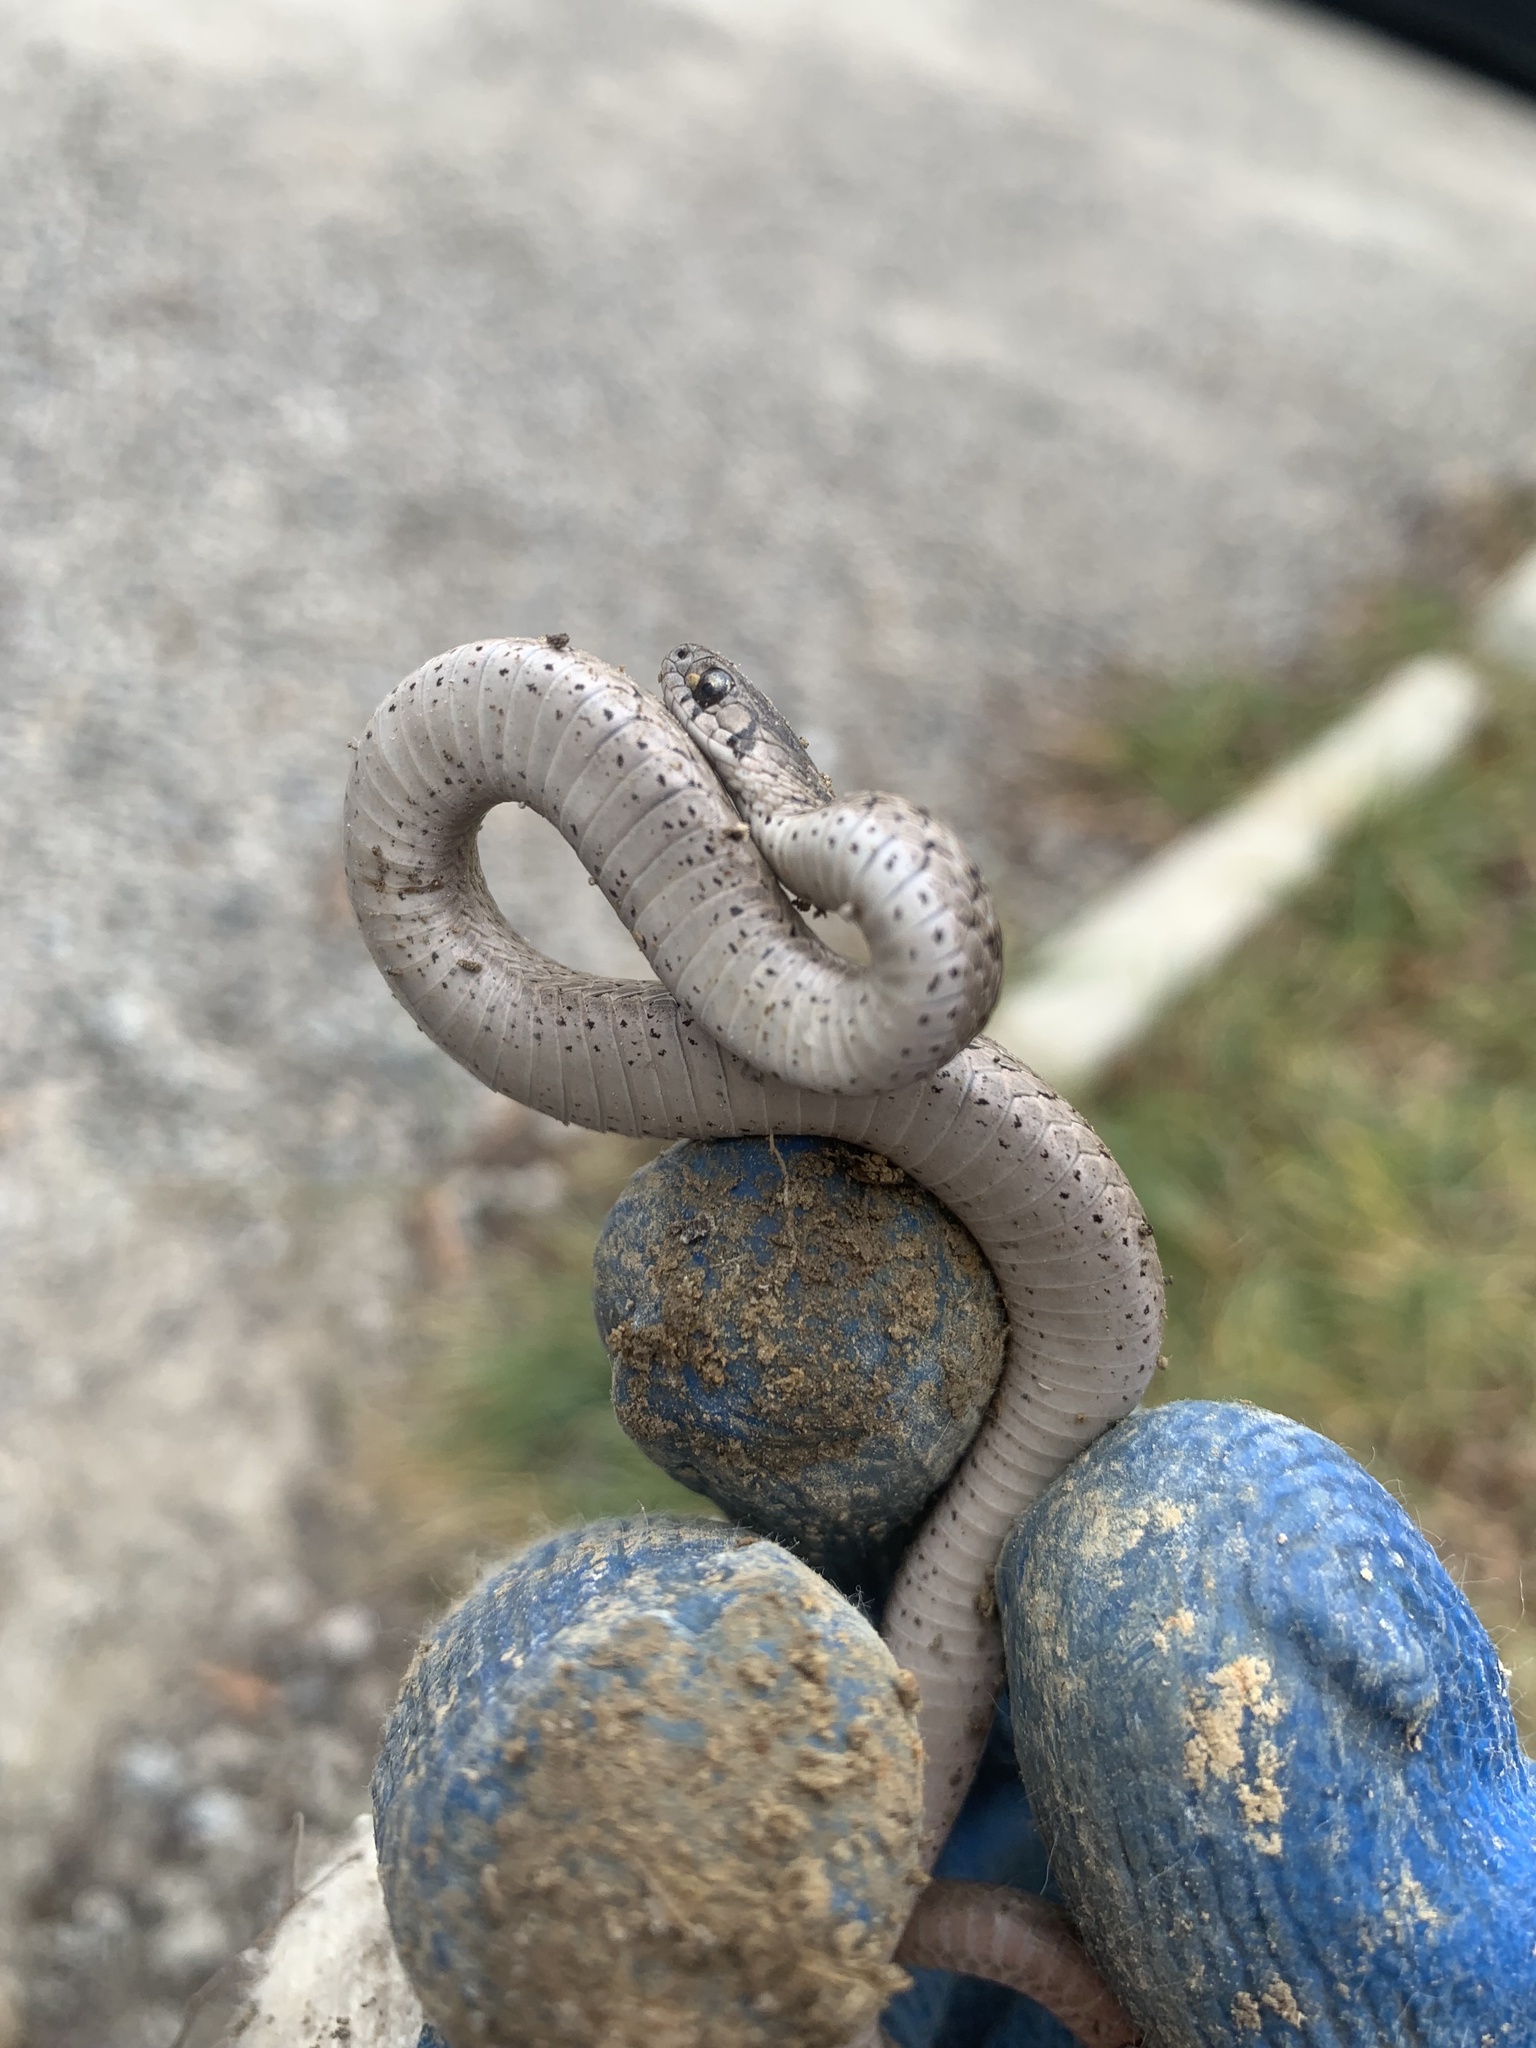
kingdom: Animalia
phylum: Chordata
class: Squamata
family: Colubridae
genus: Storeria
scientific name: Storeria dekayi
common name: (dekay’s) brown snake
